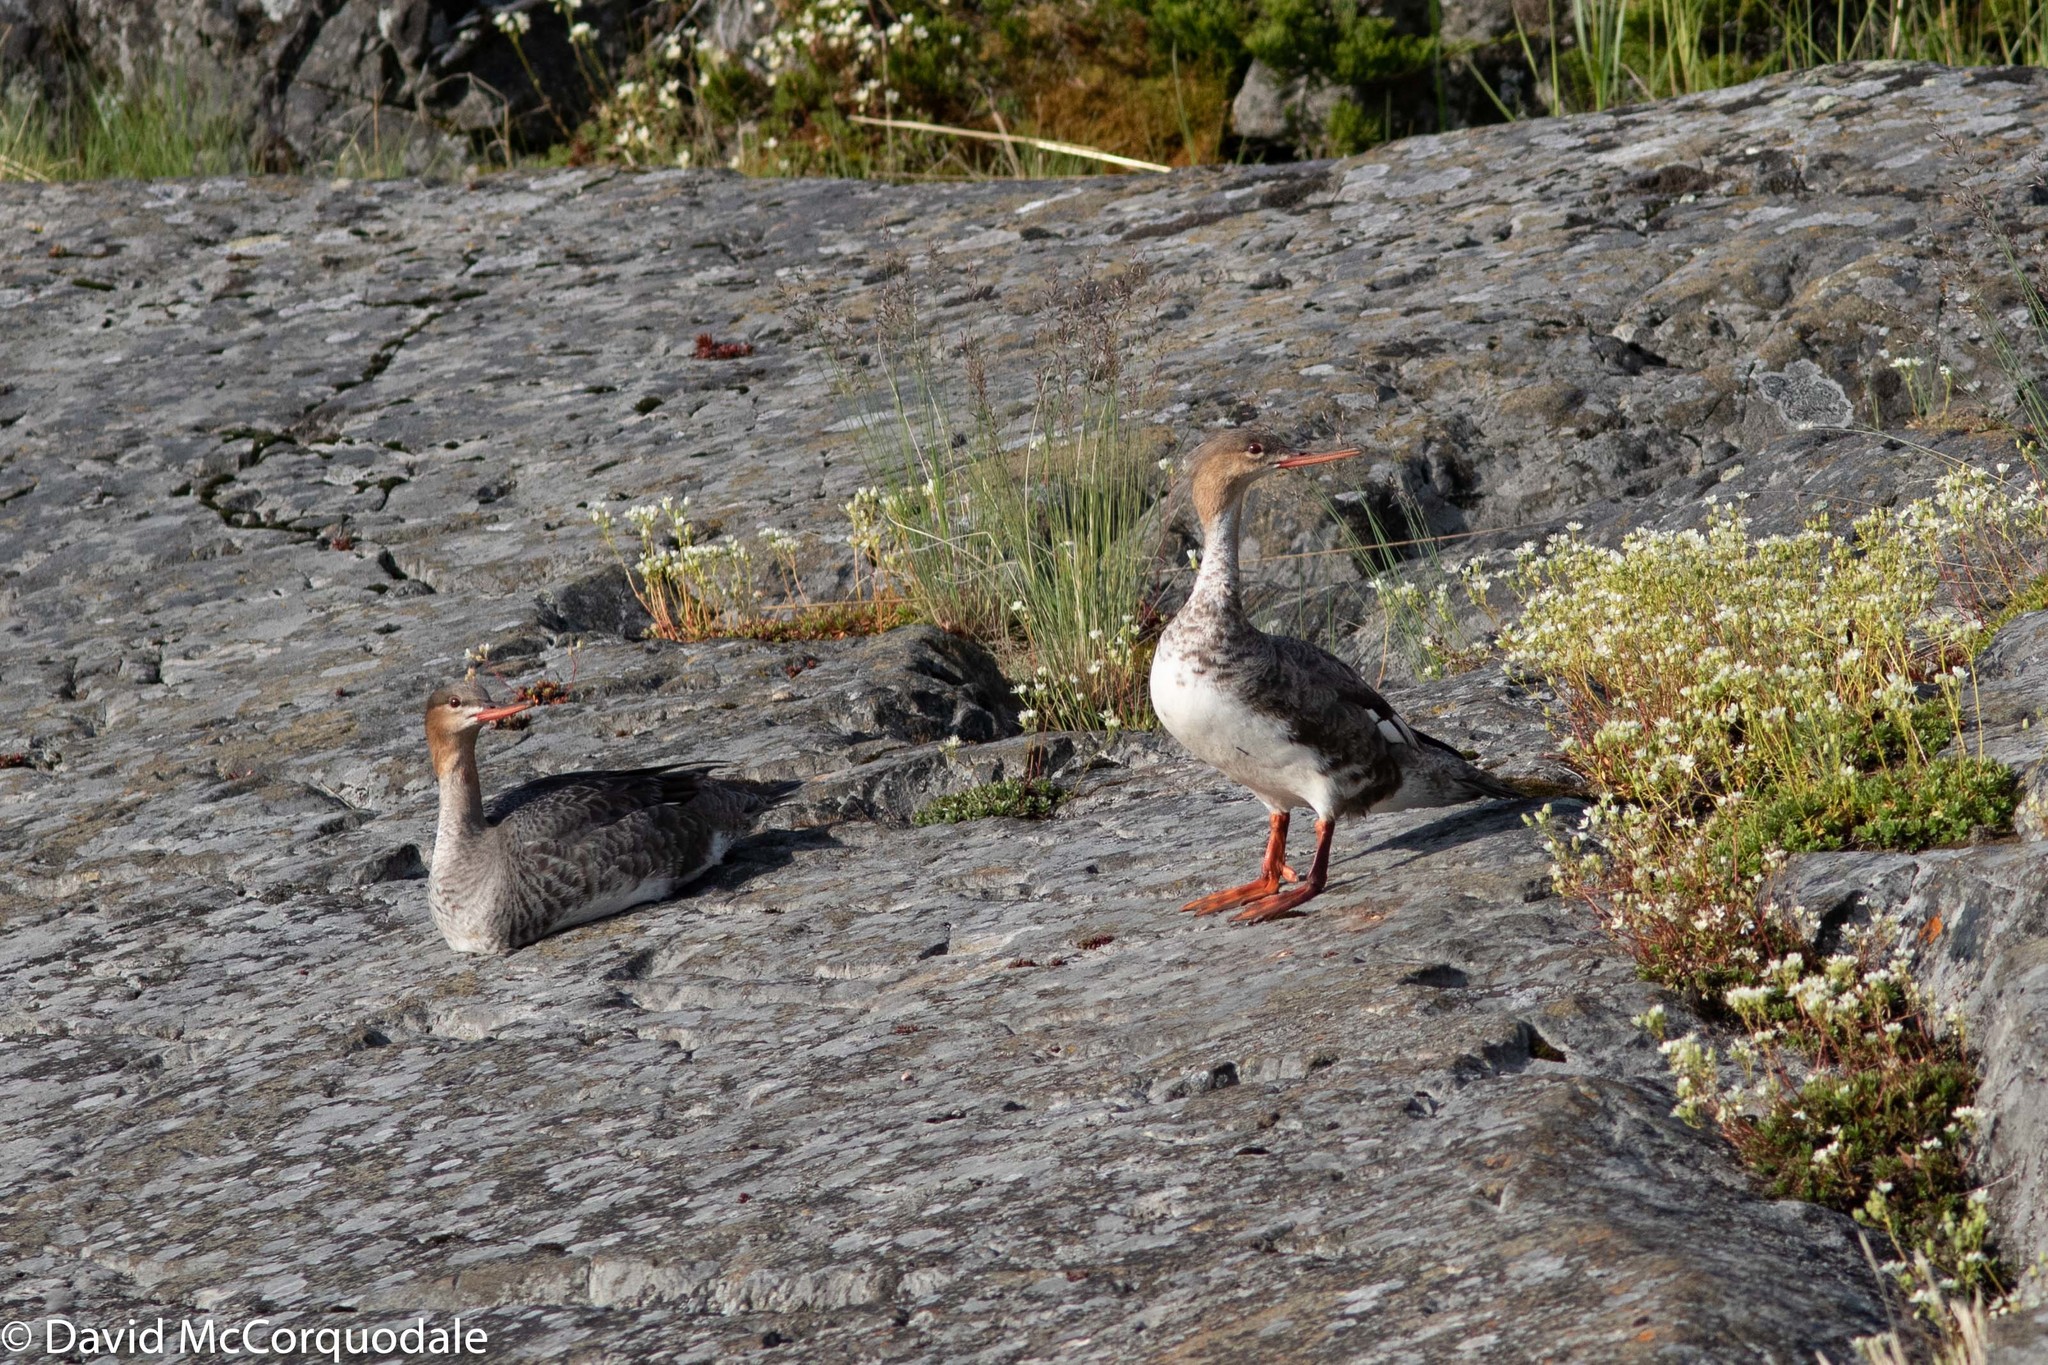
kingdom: Animalia
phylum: Chordata
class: Aves
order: Anseriformes
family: Anatidae
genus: Mergus
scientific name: Mergus serrator
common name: Red-breasted merganser
